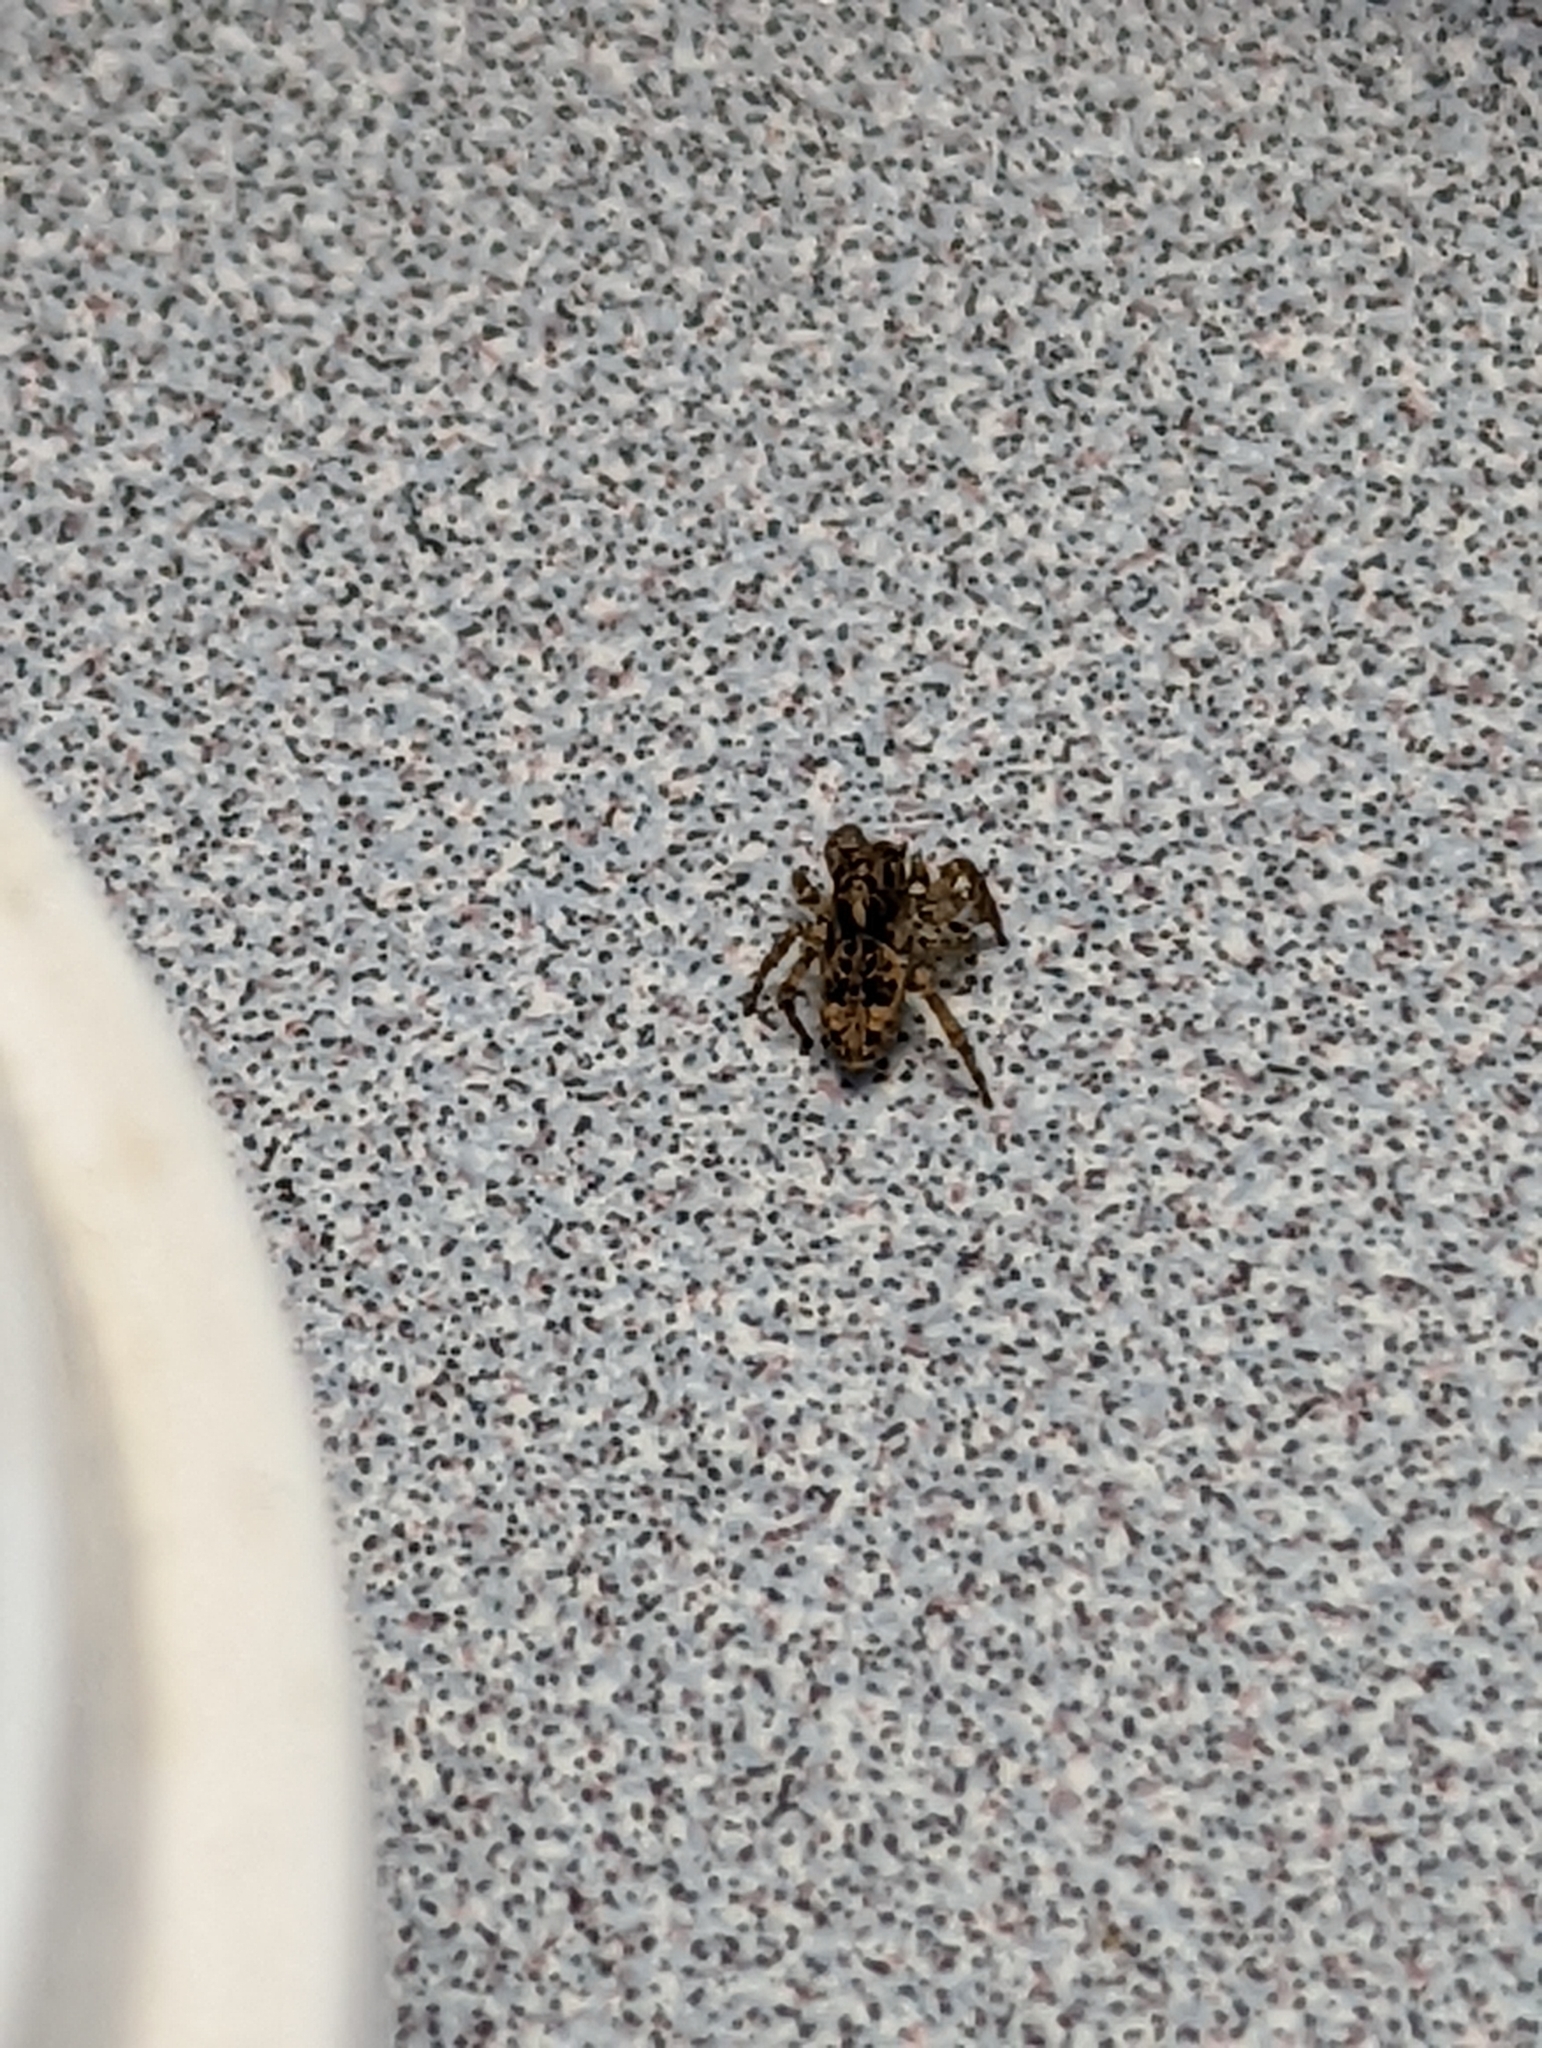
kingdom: Animalia
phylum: Arthropoda
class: Arachnida
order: Araneae
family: Salticidae
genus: Attulus
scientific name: Attulus fasciger
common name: Asiatic wall jumping spider
